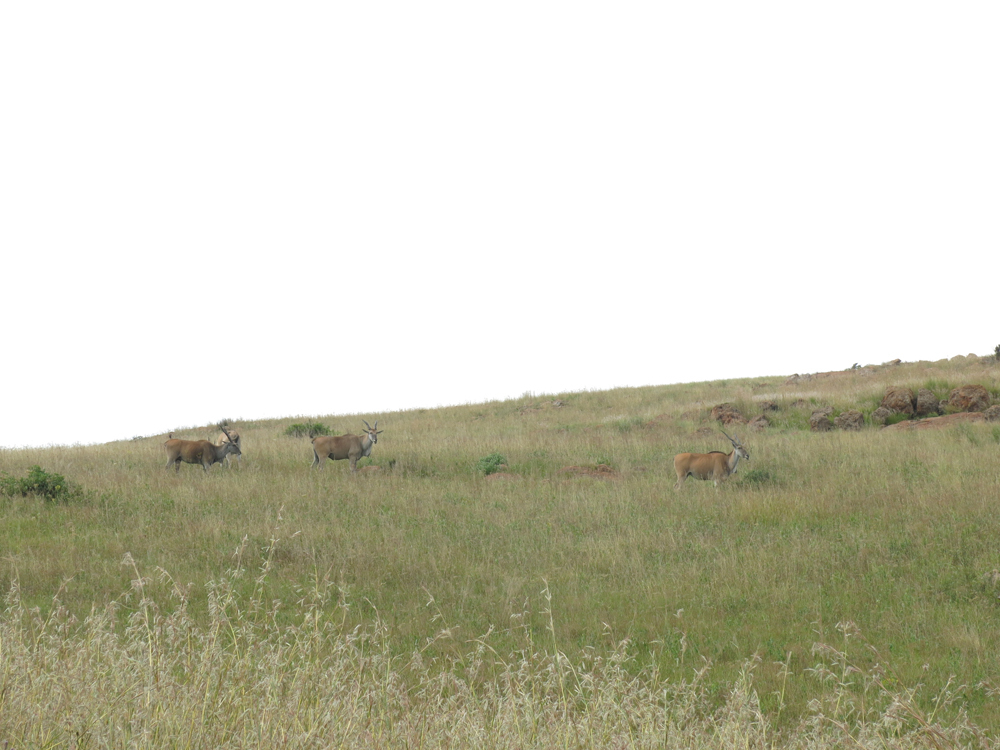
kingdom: Animalia
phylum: Chordata
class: Mammalia
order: Artiodactyla
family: Bovidae
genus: Taurotragus
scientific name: Taurotragus oryx
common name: Common eland
